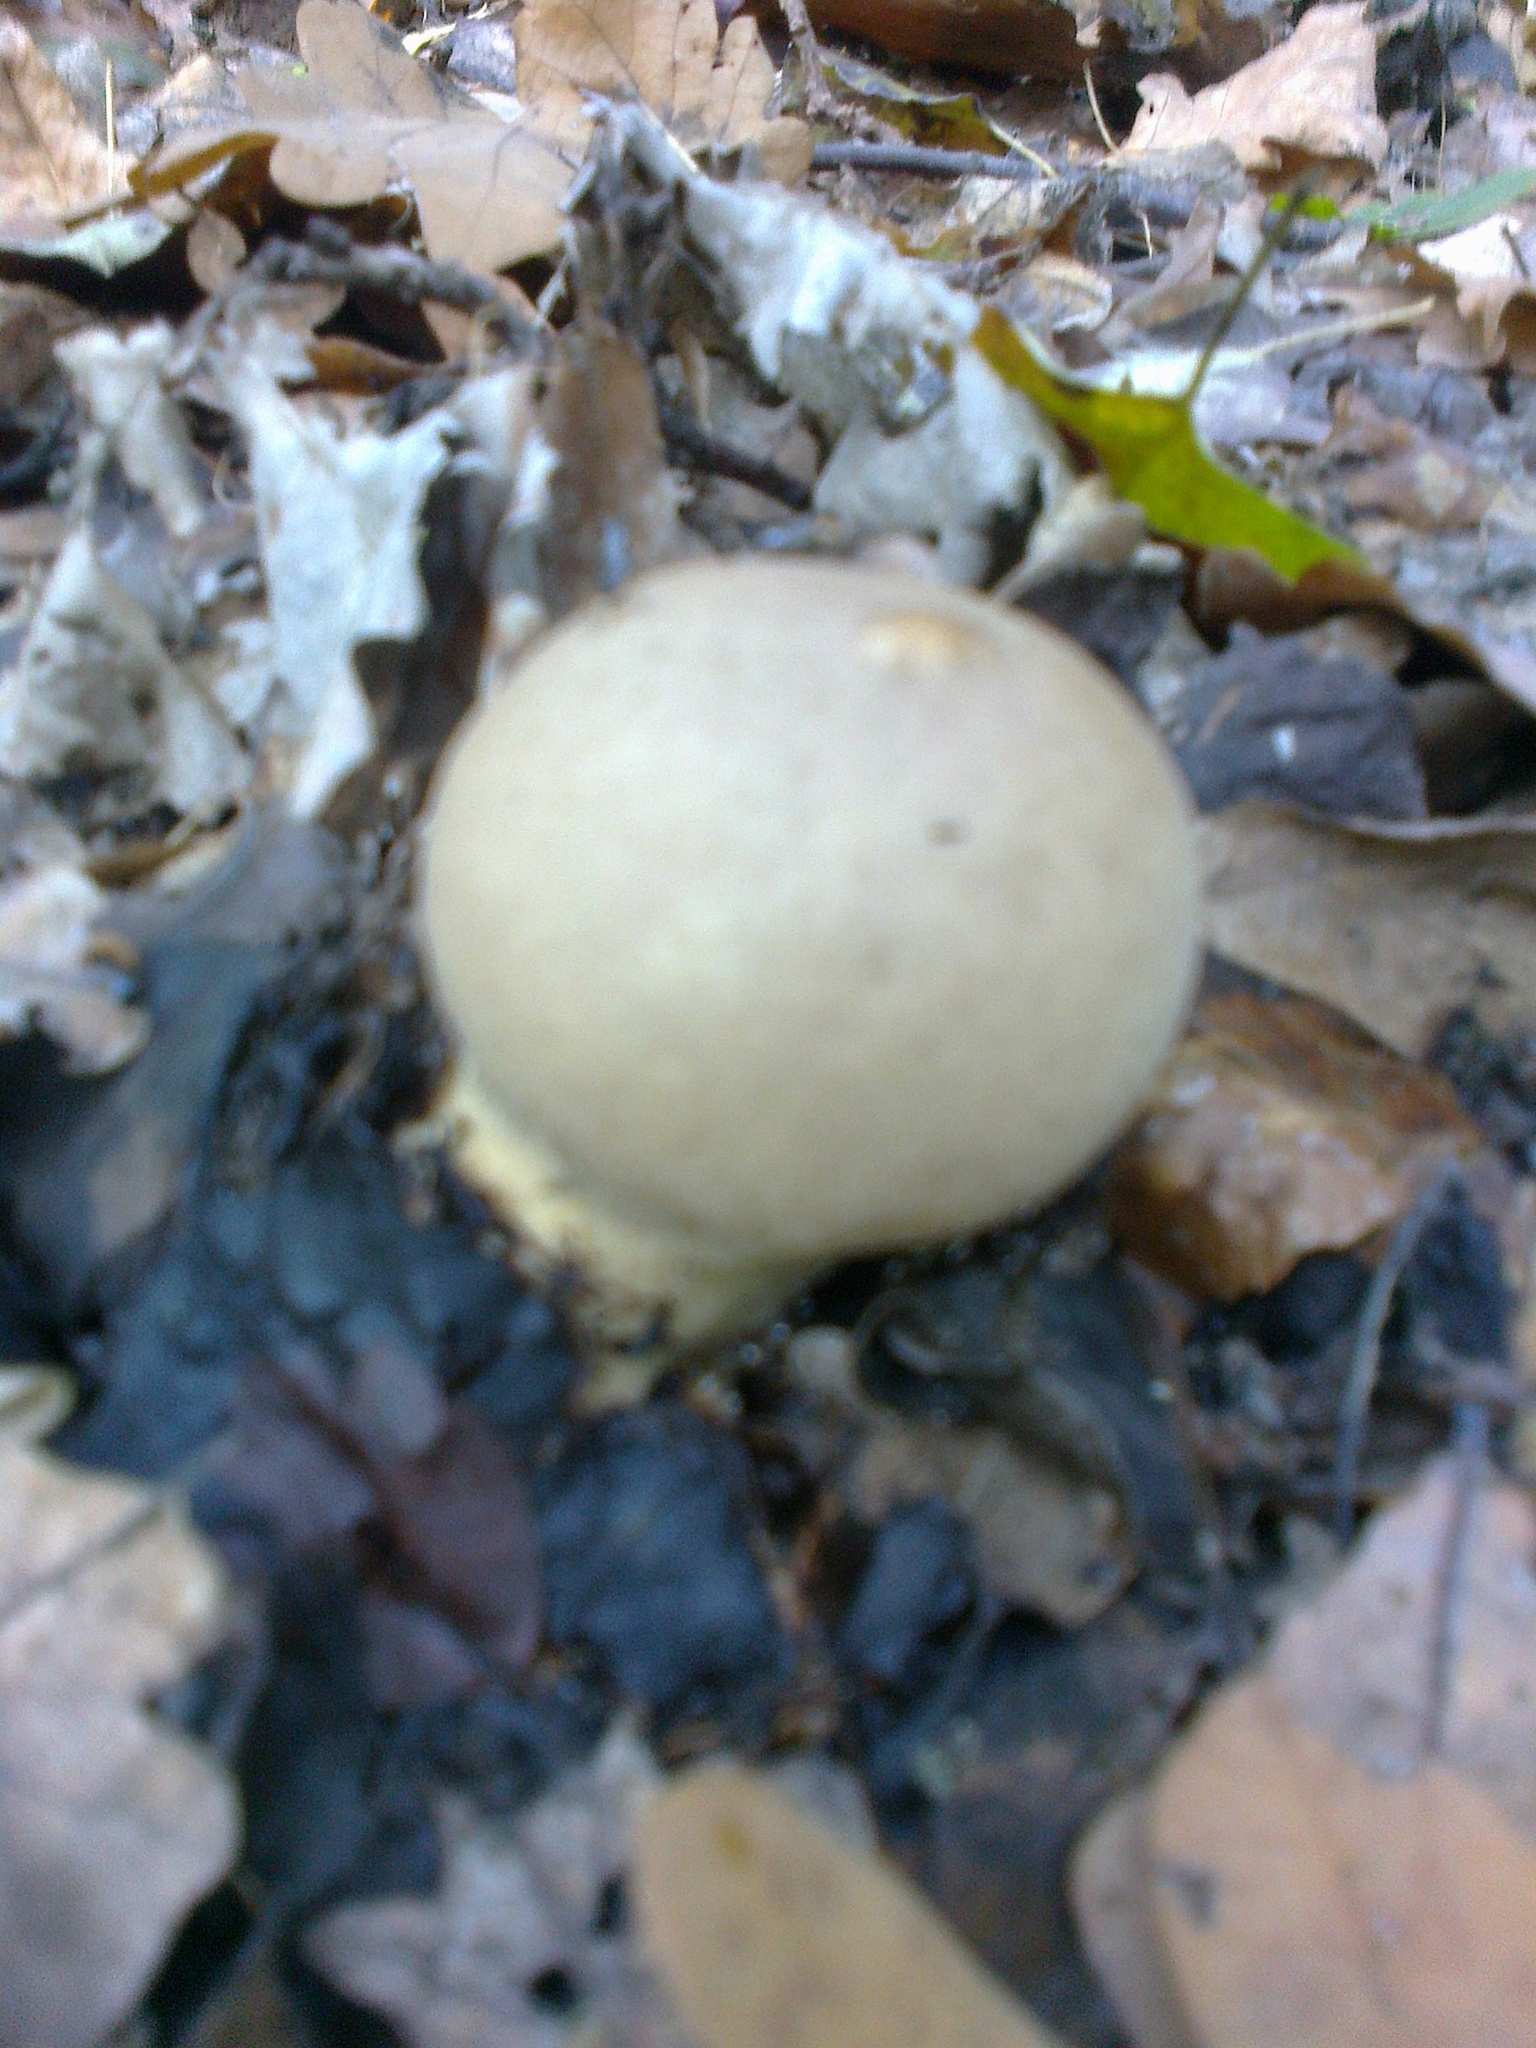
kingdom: Fungi
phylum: Basidiomycota
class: Agaricomycetes
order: Boletales
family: Sclerodermataceae
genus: Scleroderma
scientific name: Scleroderma citrinum
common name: Common earthball
